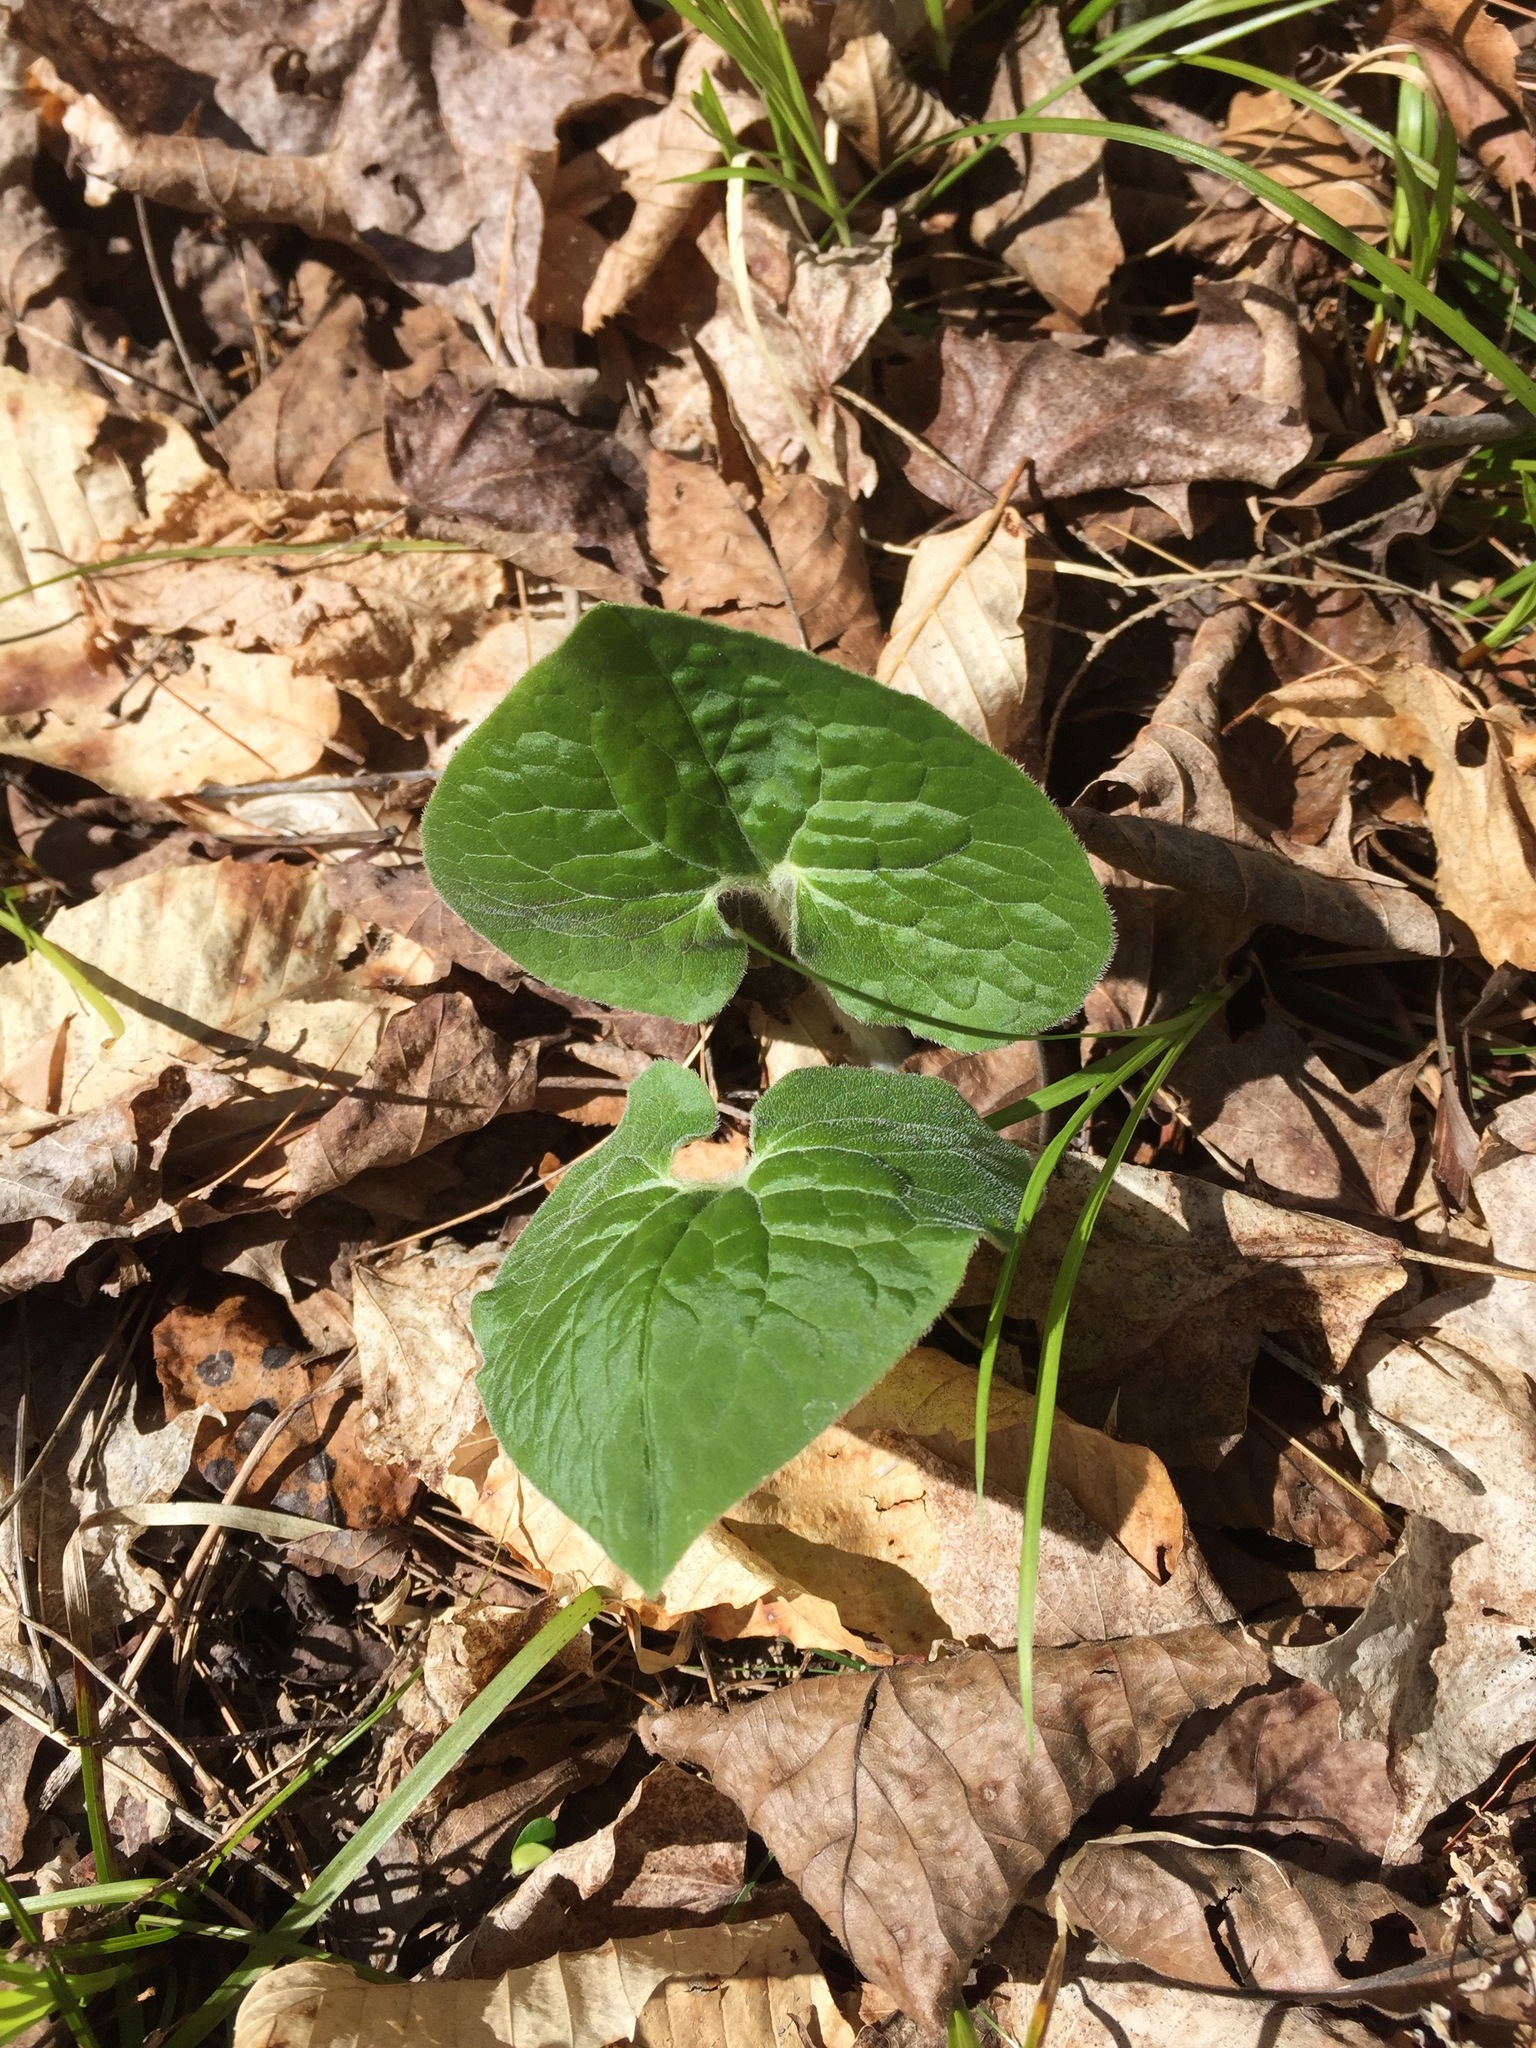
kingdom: Plantae
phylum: Tracheophyta
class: Magnoliopsida
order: Piperales
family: Aristolochiaceae
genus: Asarum
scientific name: Asarum canadense
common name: Wild ginger
